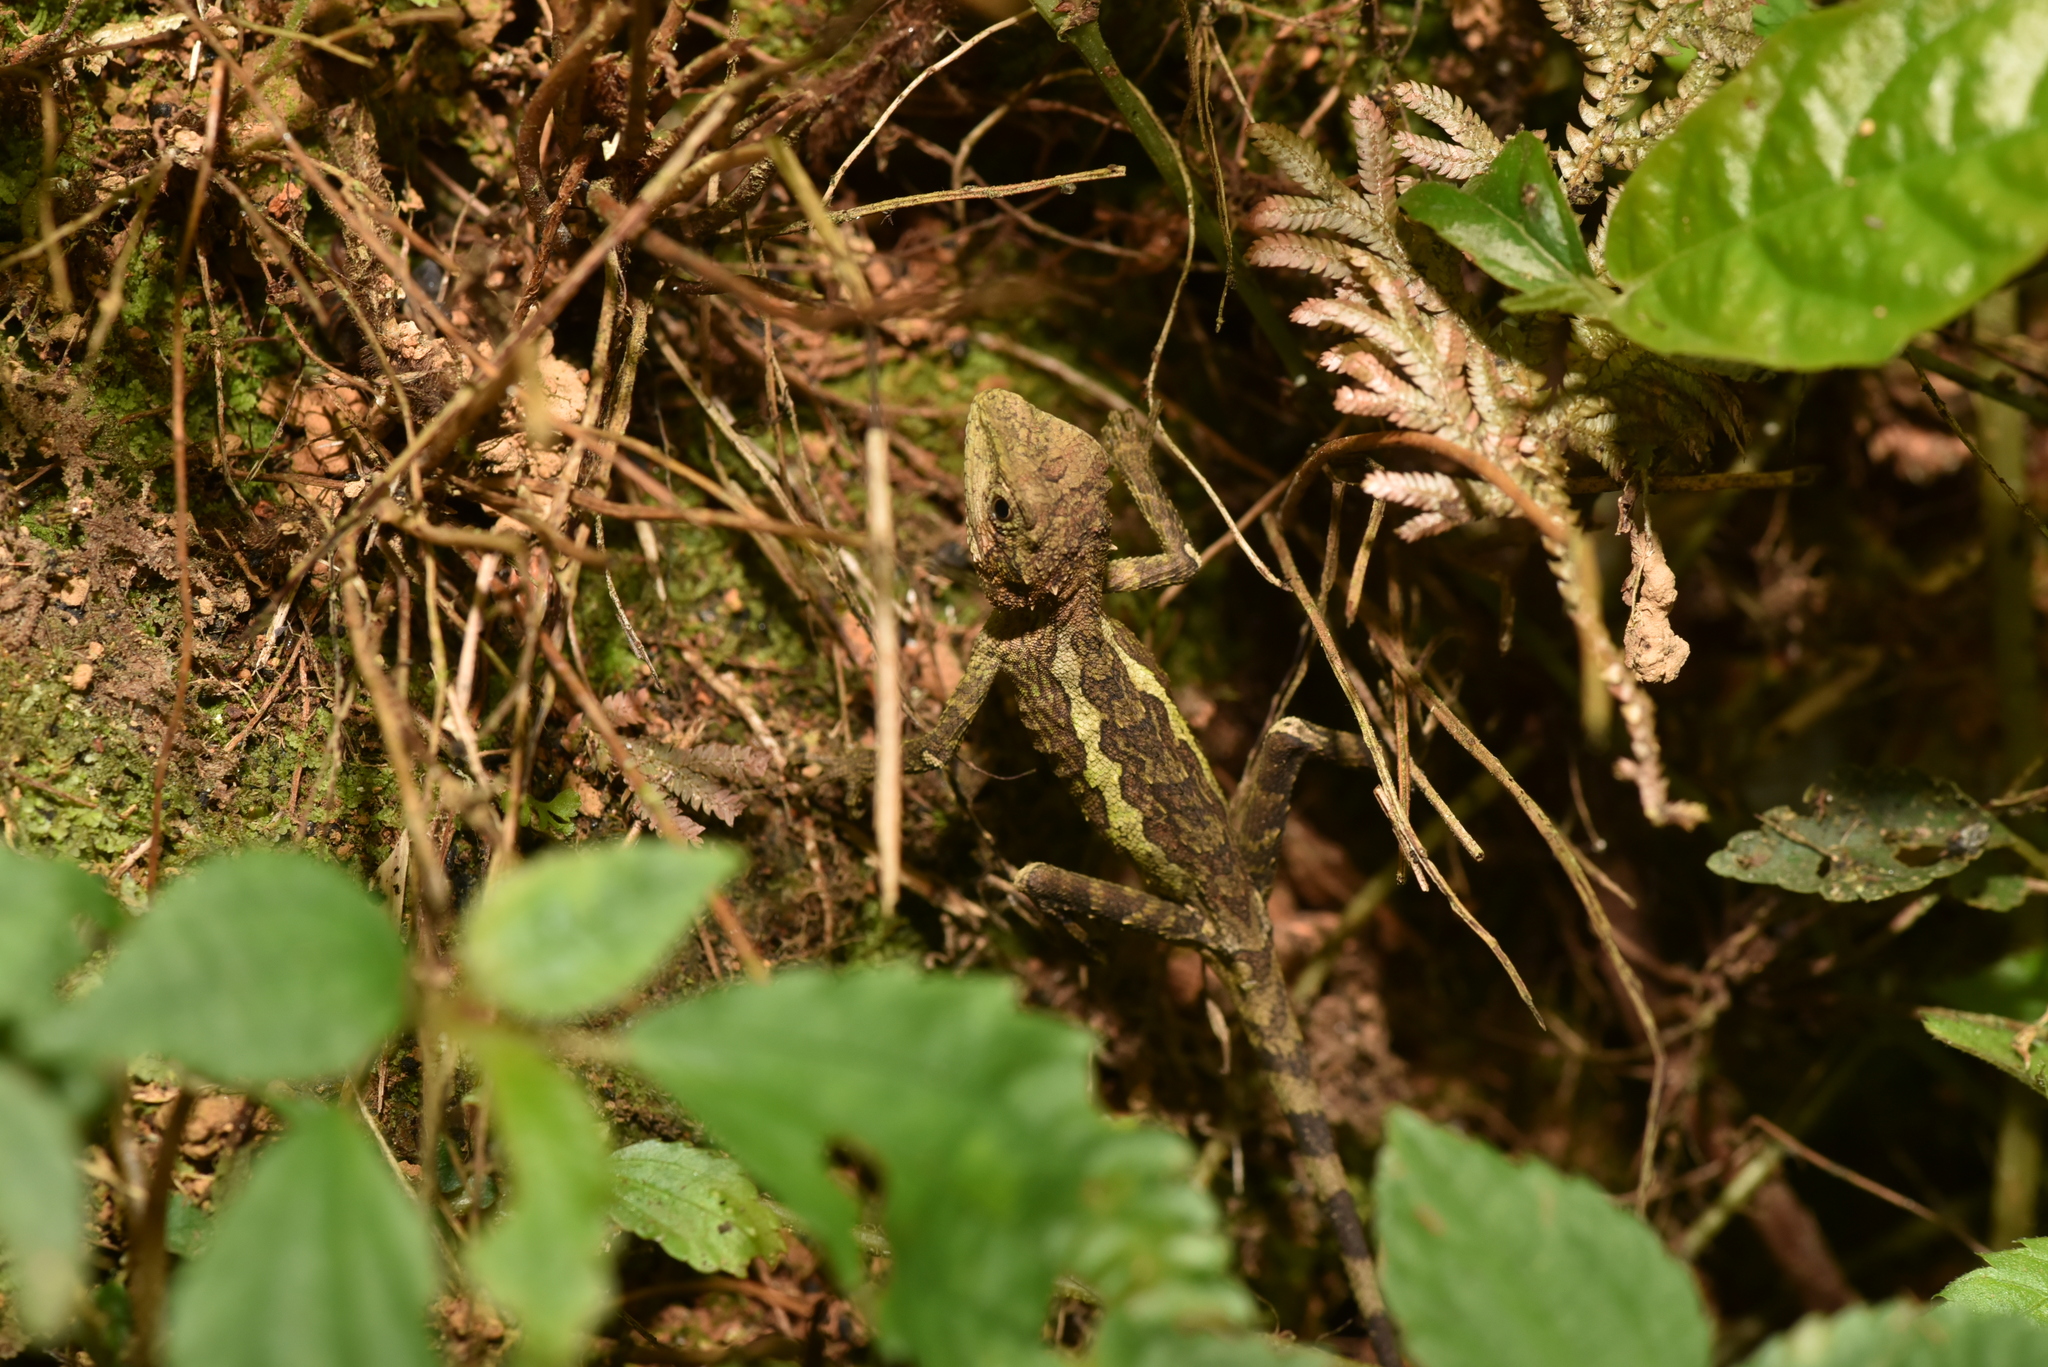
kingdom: Animalia
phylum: Chordata
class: Squamata
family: Agamidae
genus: Diploderma
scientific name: Diploderma swinhonis
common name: Taiwan japalure
